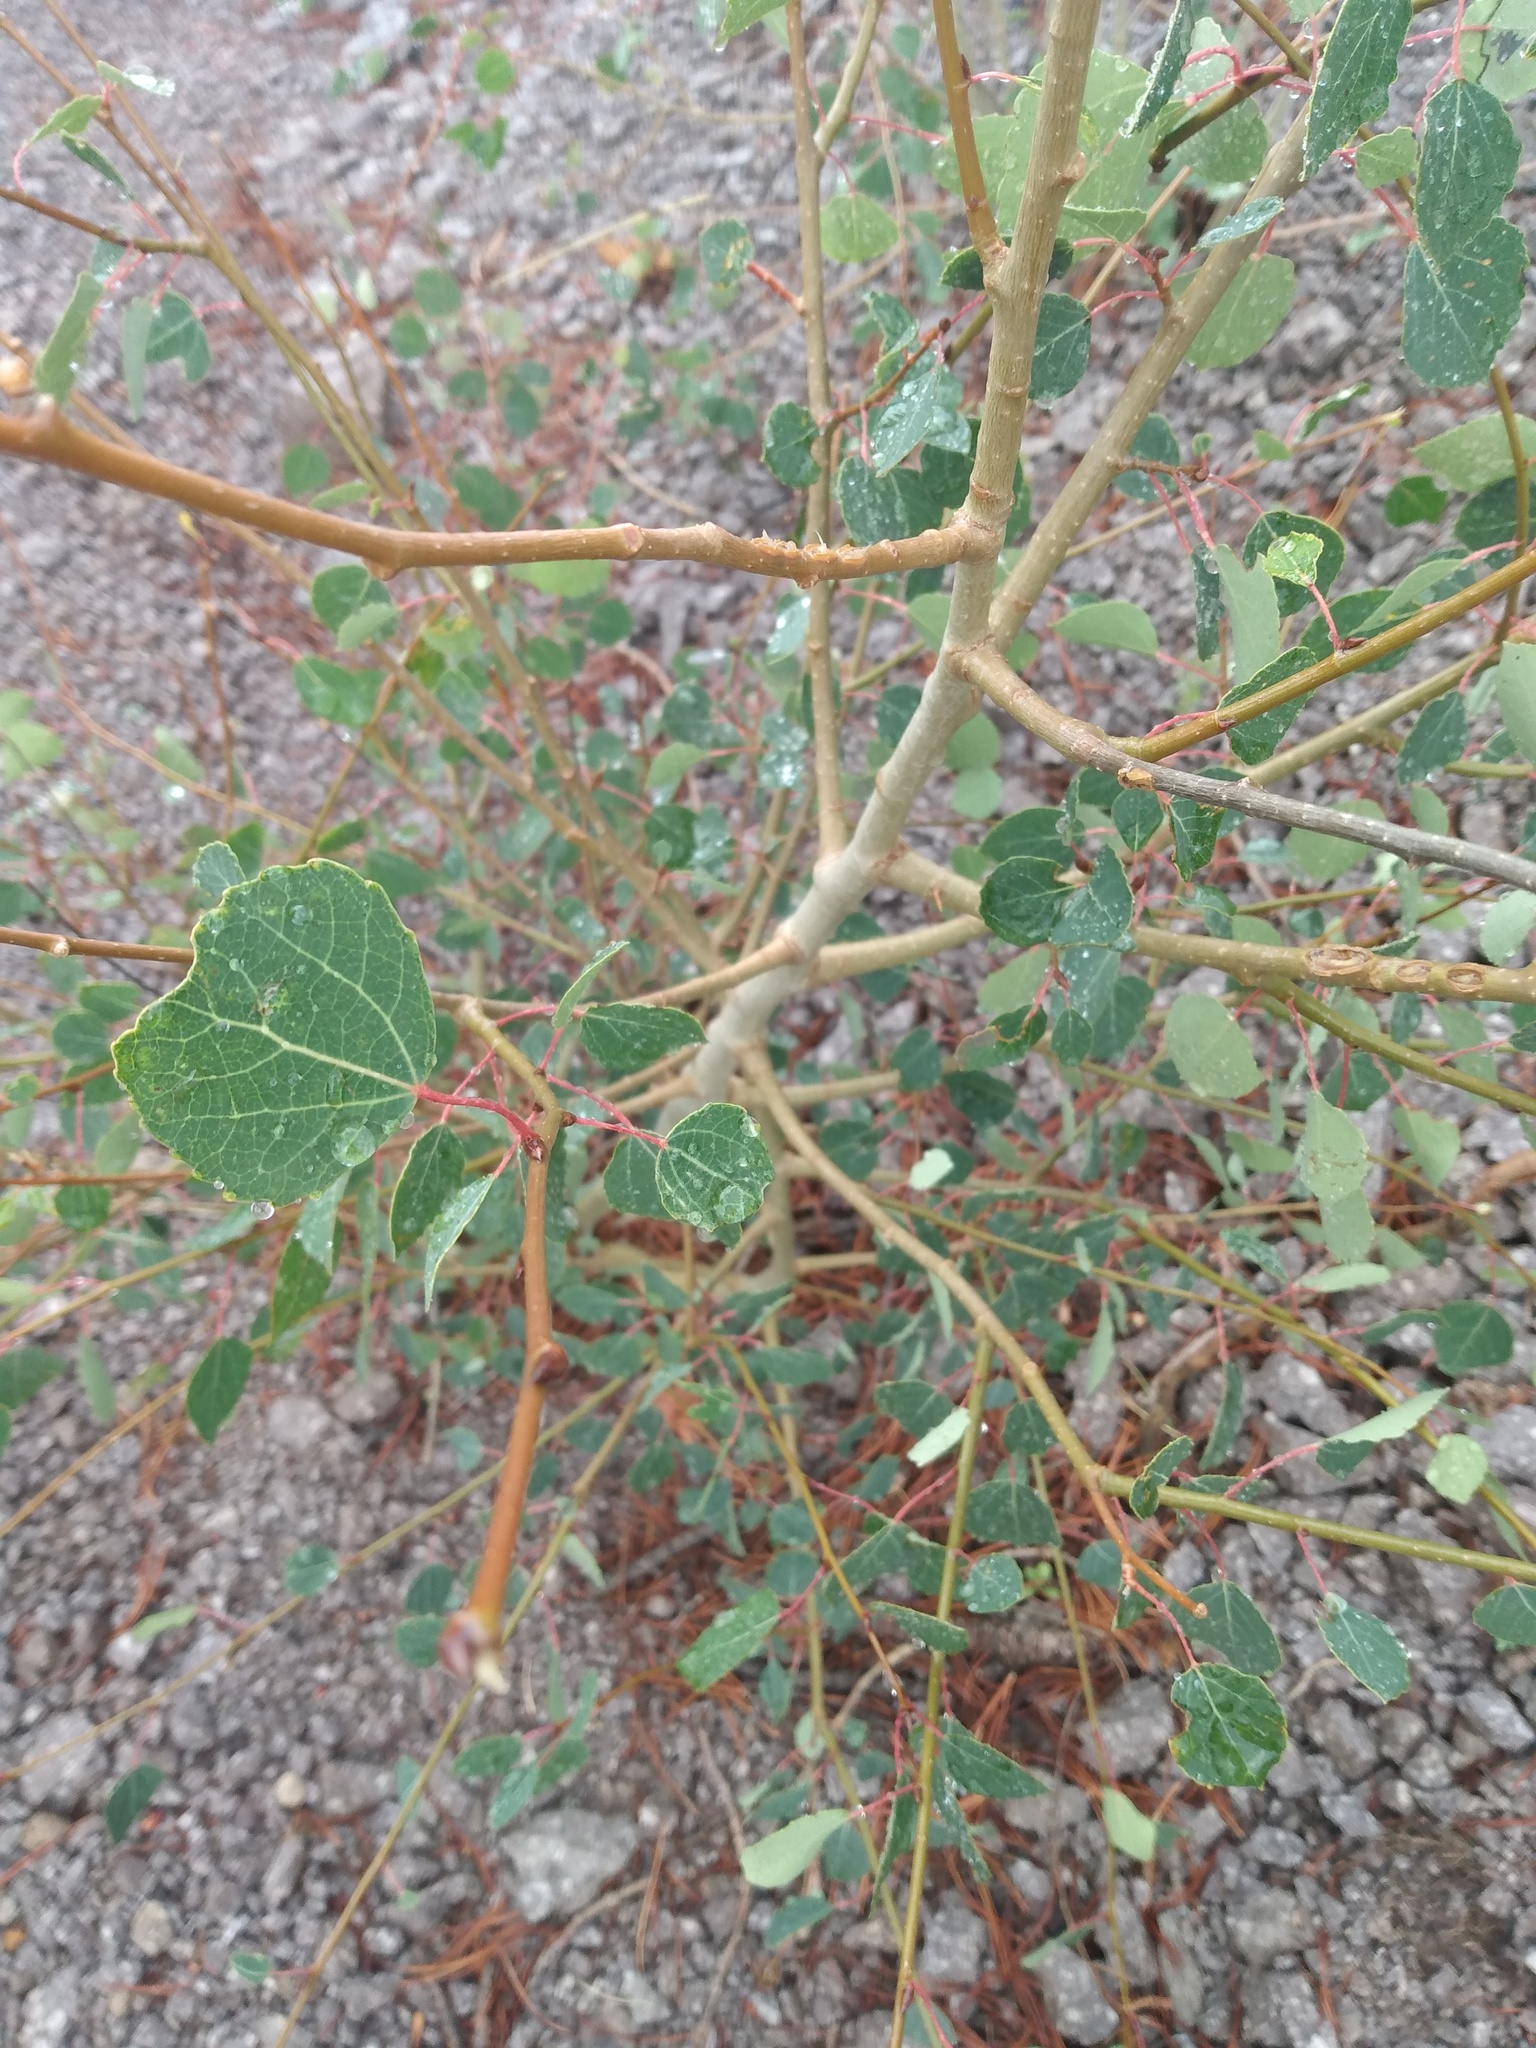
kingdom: Plantae
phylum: Tracheophyta
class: Magnoliopsida
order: Malpighiales
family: Salicaceae
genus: Populus
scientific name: Populus tremuloides
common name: Quaking aspen
